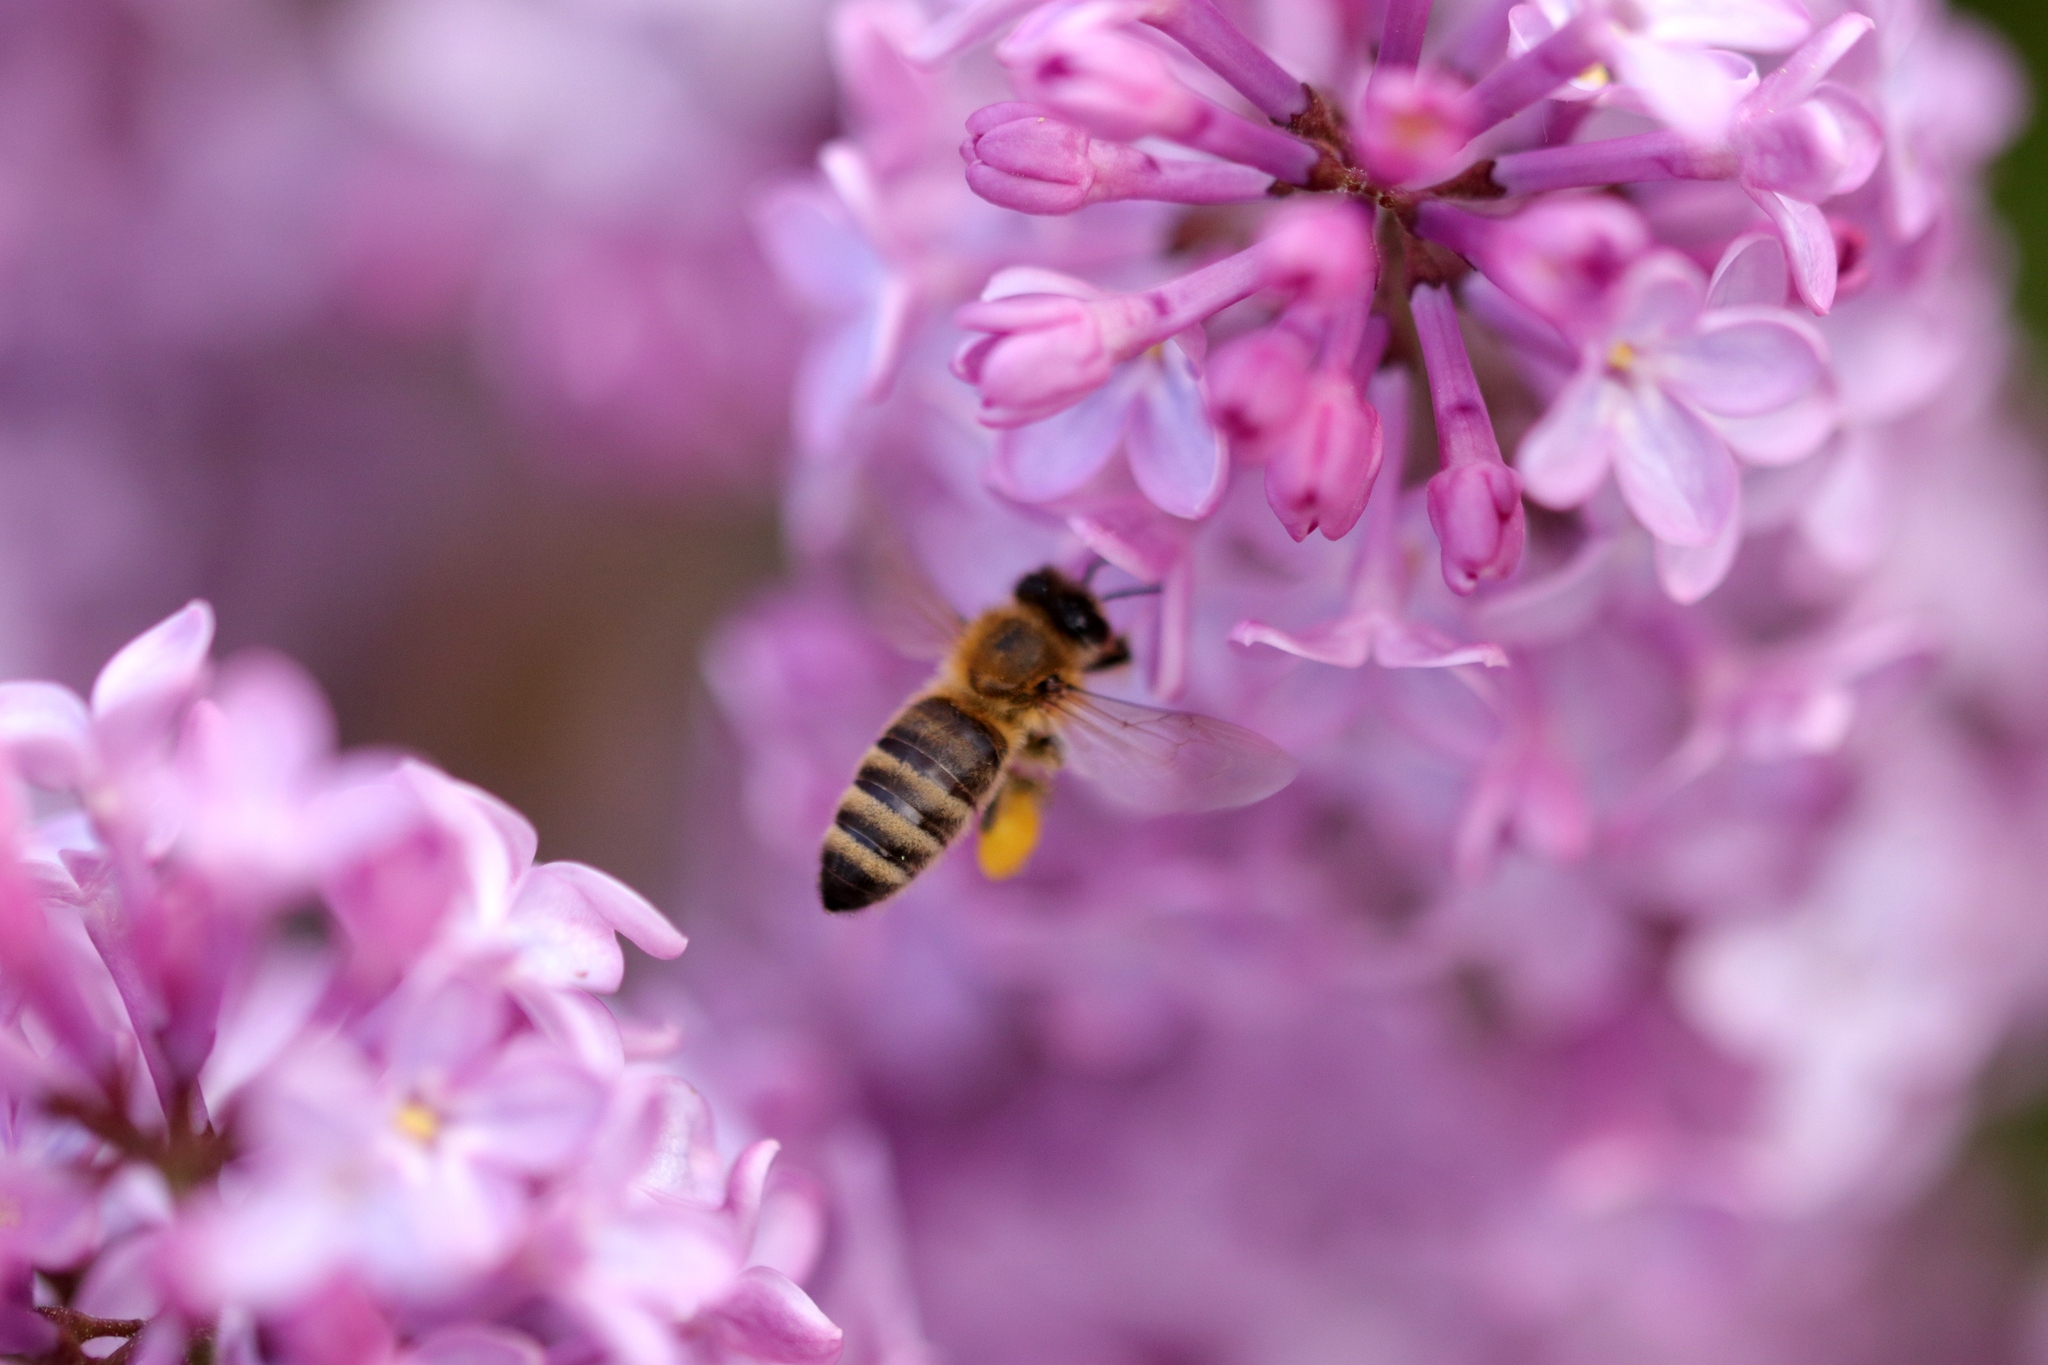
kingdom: Animalia
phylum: Arthropoda
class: Insecta
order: Hymenoptera
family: Apidae
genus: Apis
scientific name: Apis mellifera
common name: Honey bee
